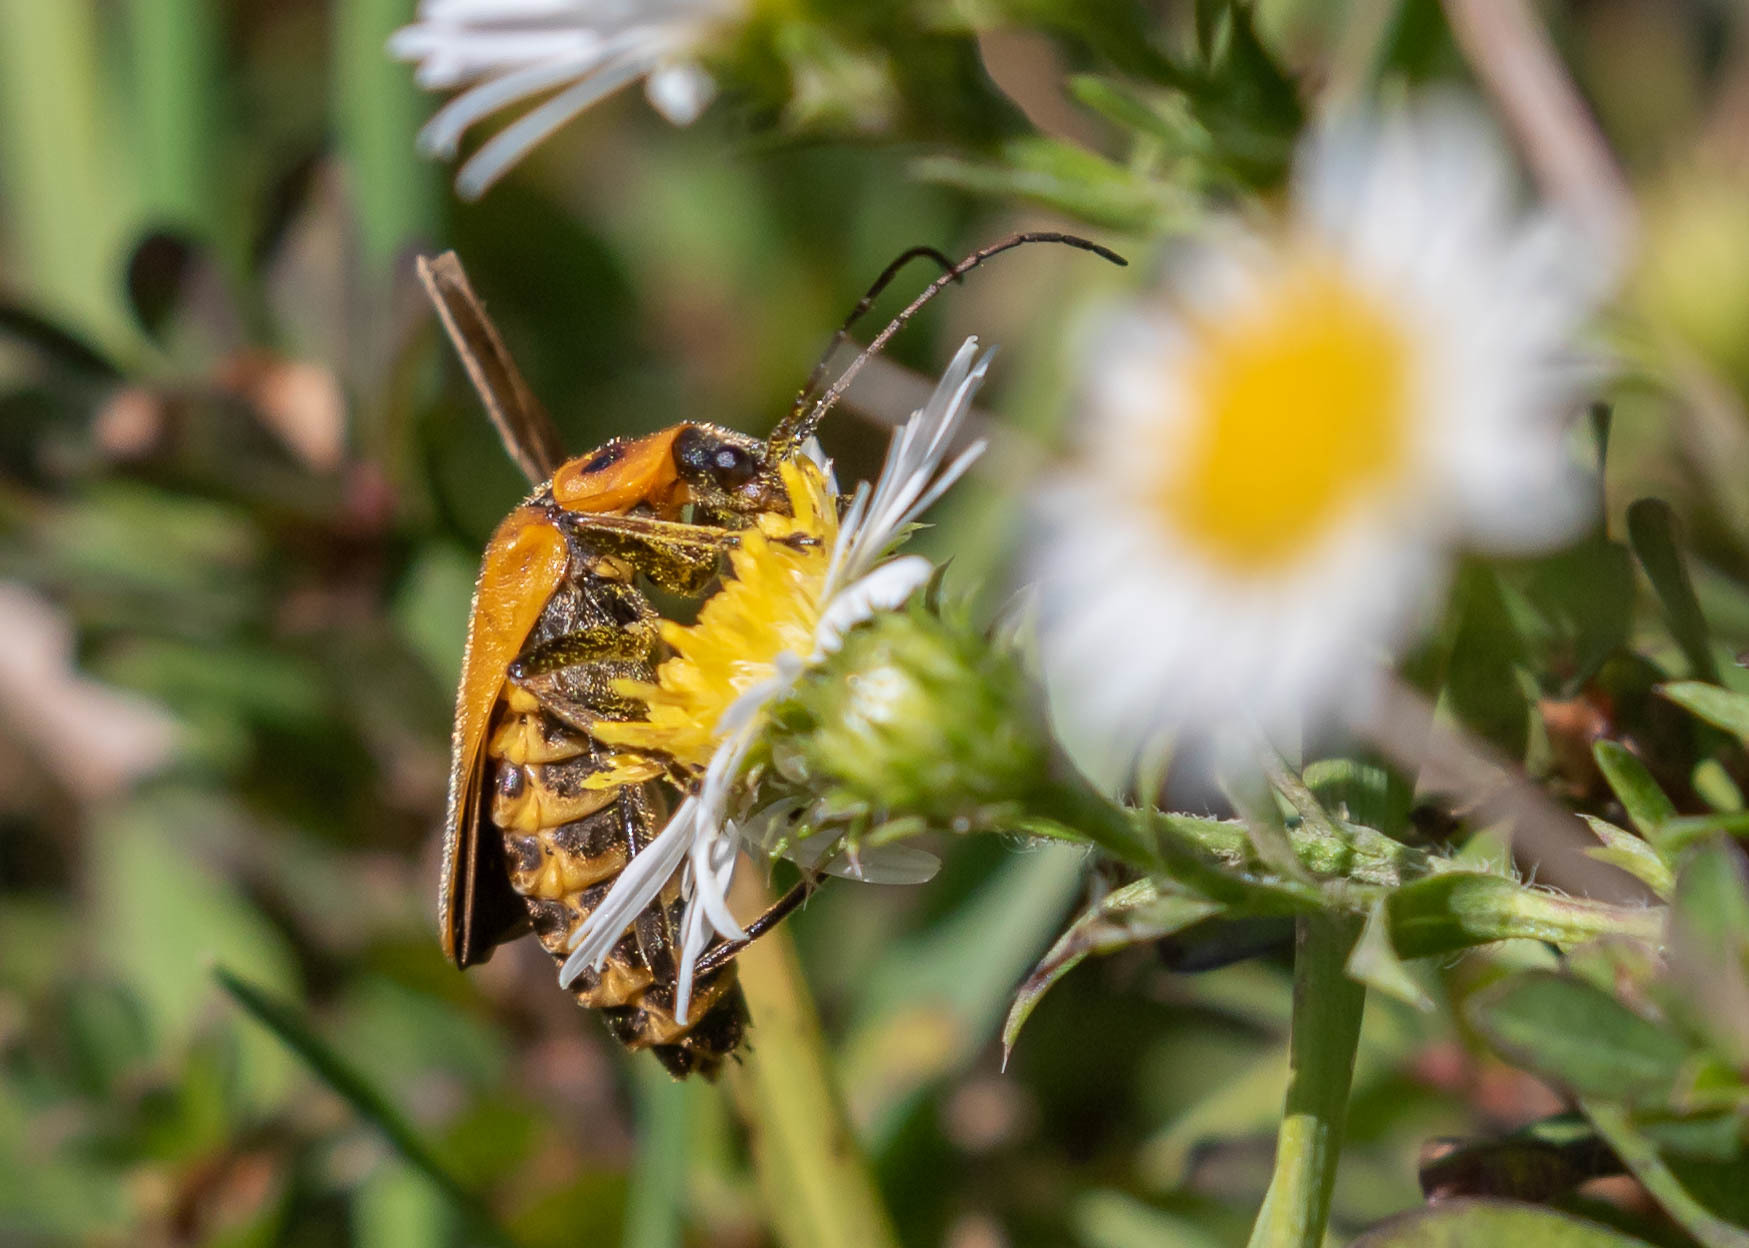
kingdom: Animalia
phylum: Arthropoda
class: Insecta
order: Coleoptera
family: Cantharidae
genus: Chauliognathus
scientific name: Chauliognathus pensylvanicus
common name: Goldenrod soldier beetle
